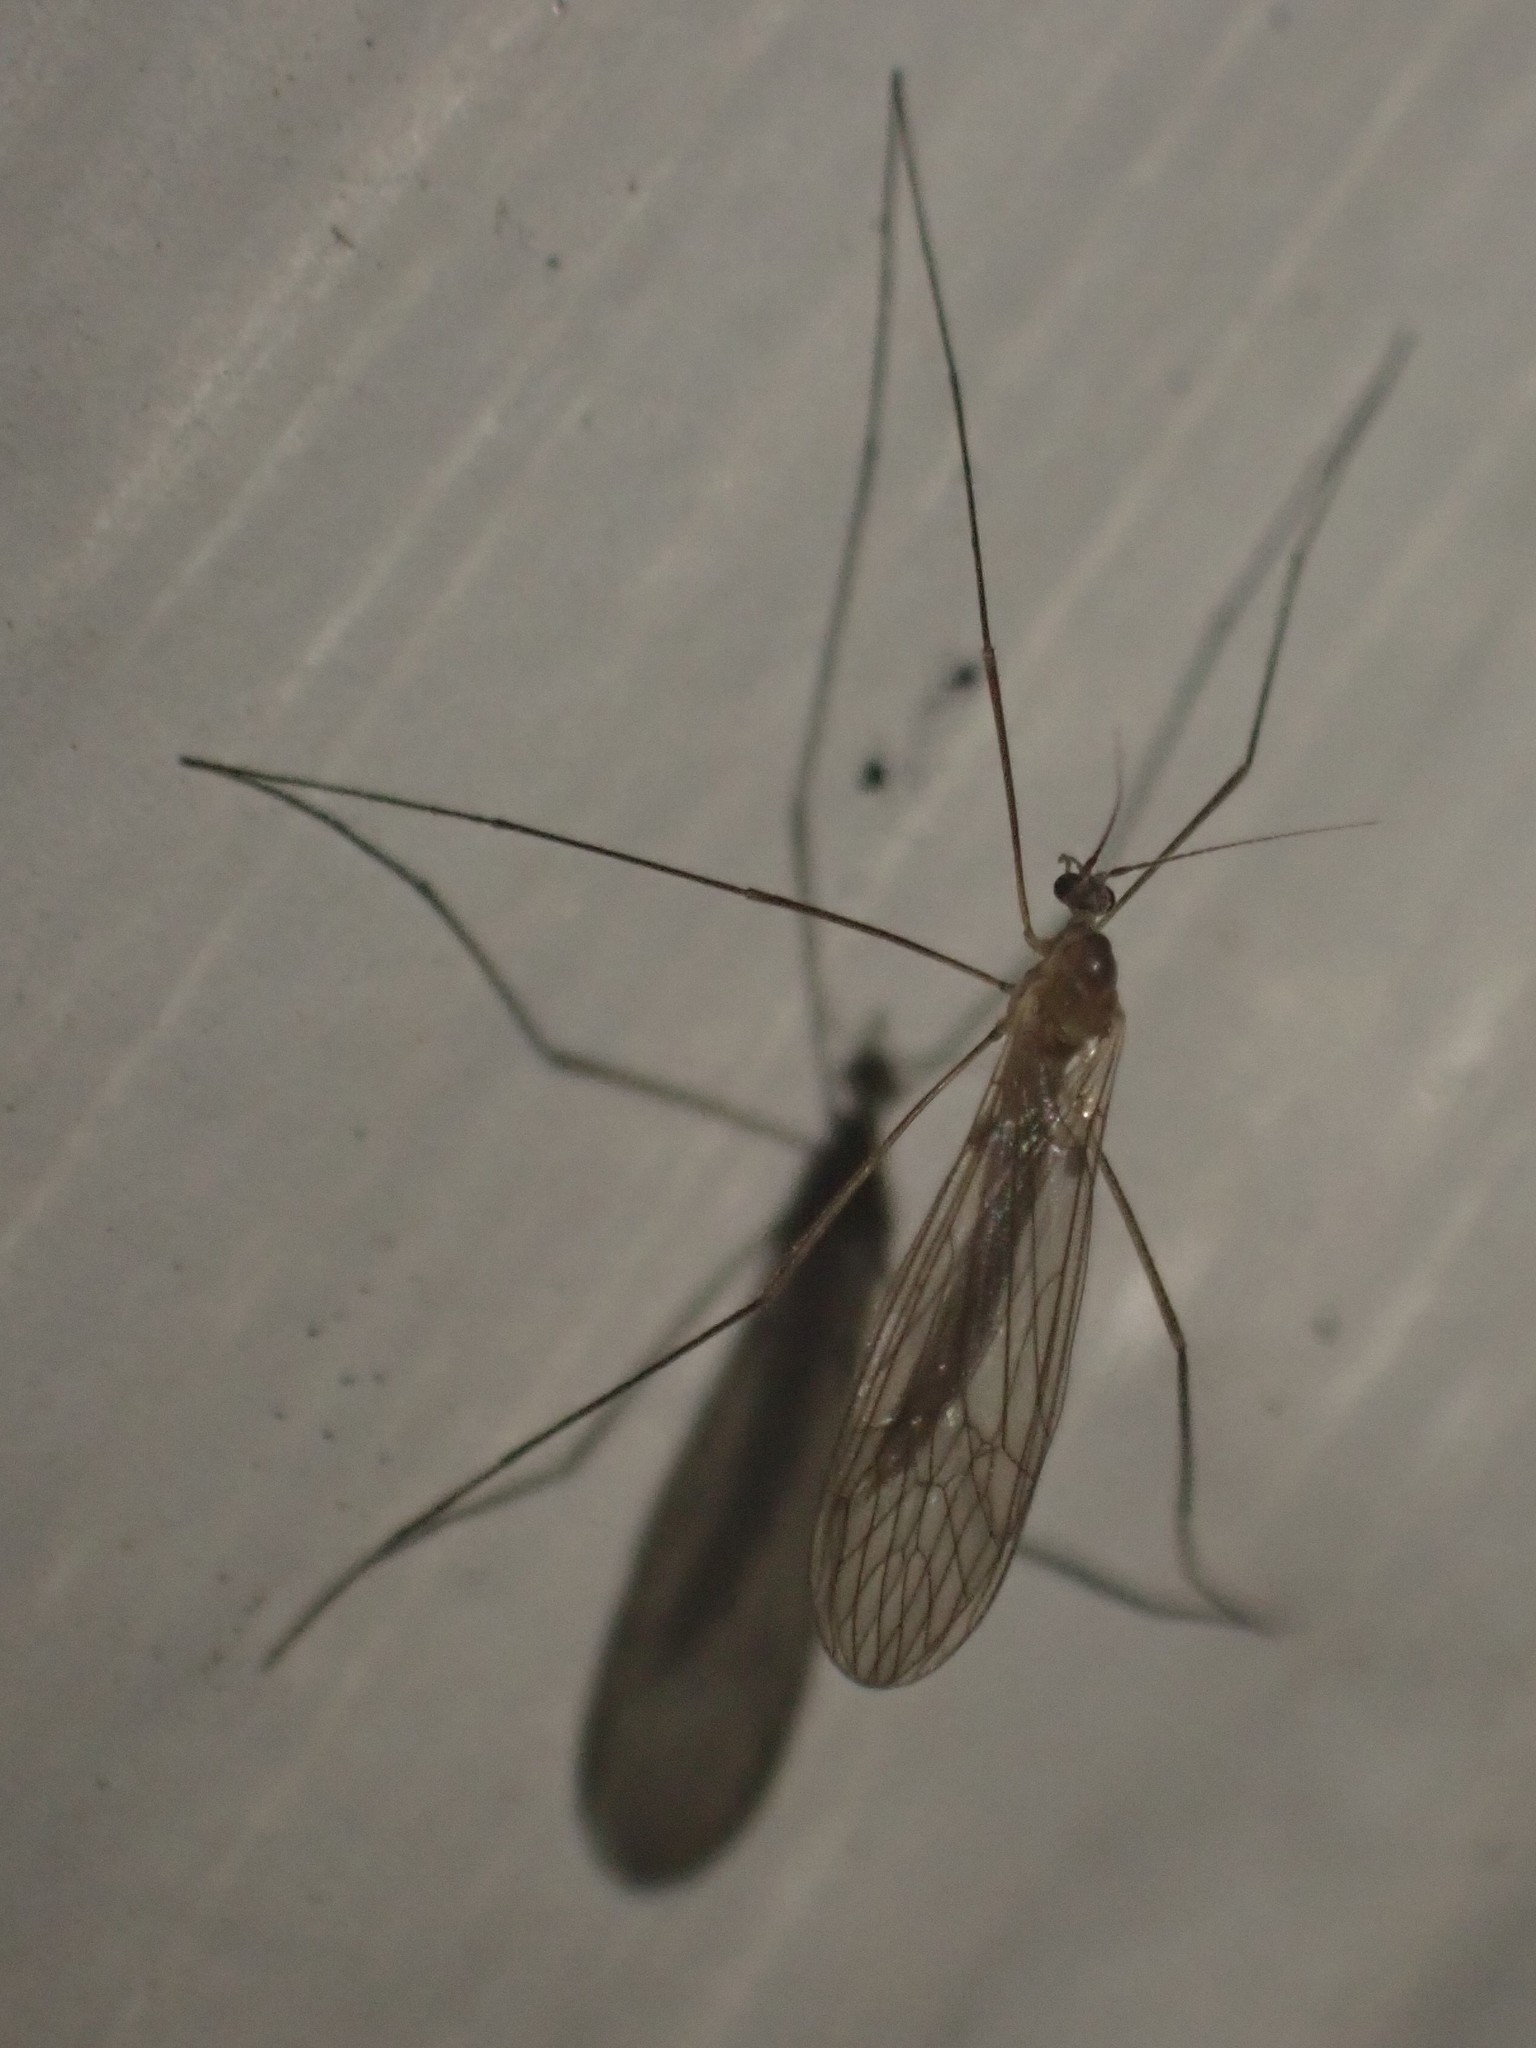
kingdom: Animalia
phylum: Arthropoda
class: Insecta
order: Diptera
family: Trichoceridae
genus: Trichocera
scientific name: Trichocera
